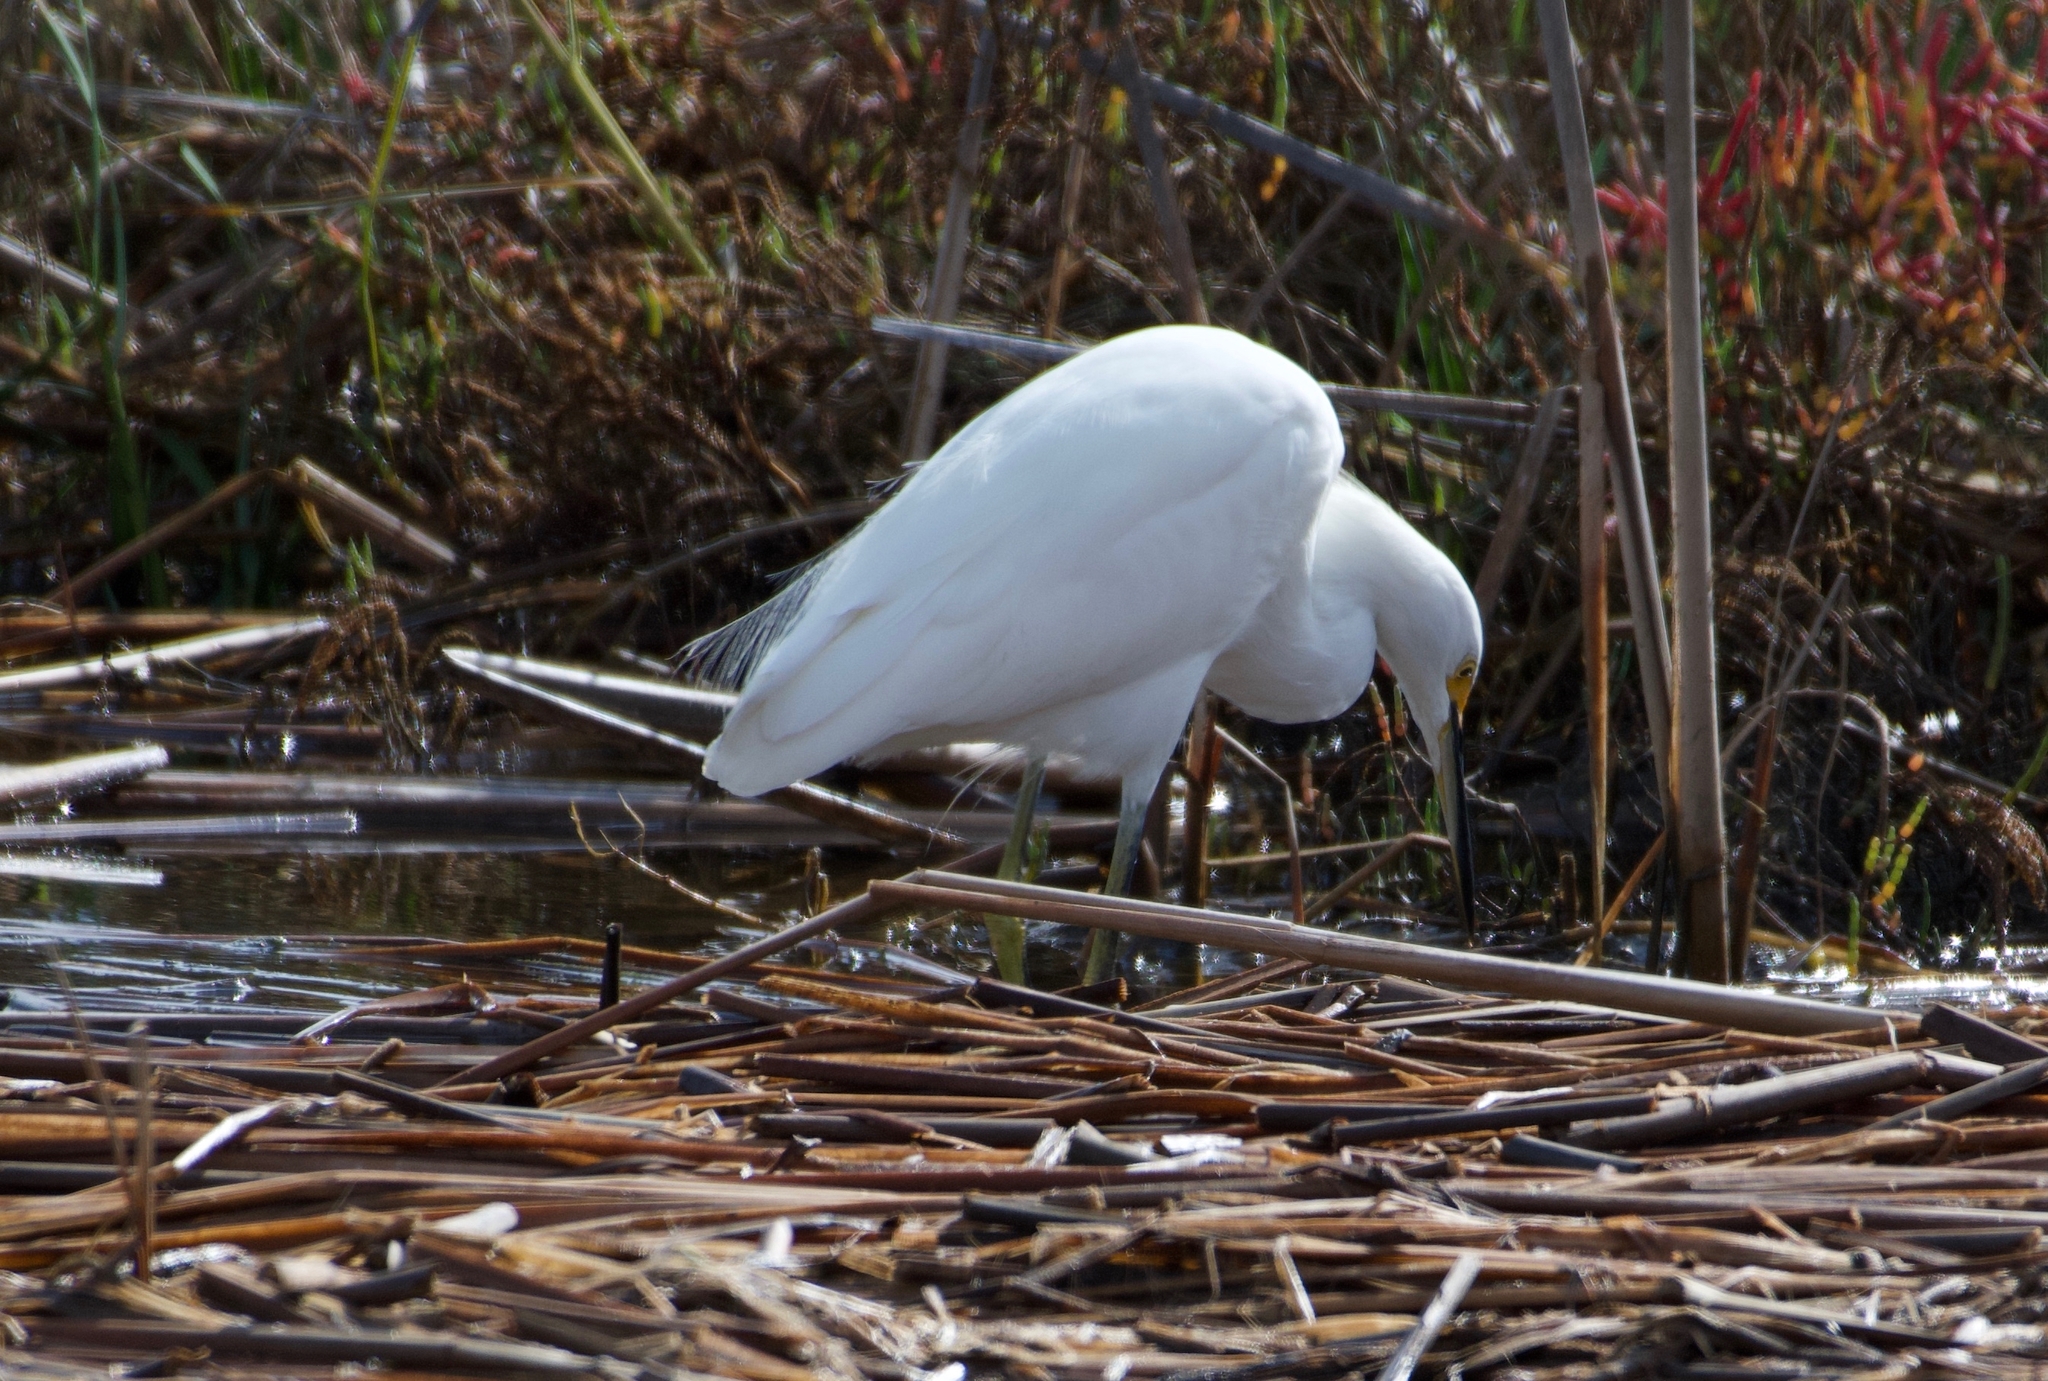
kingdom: Animalia
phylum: Chordata
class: Aves
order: Pelecaniformes
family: Ardeidae
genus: Egretta
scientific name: Egretta thula
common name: Snowy egret
